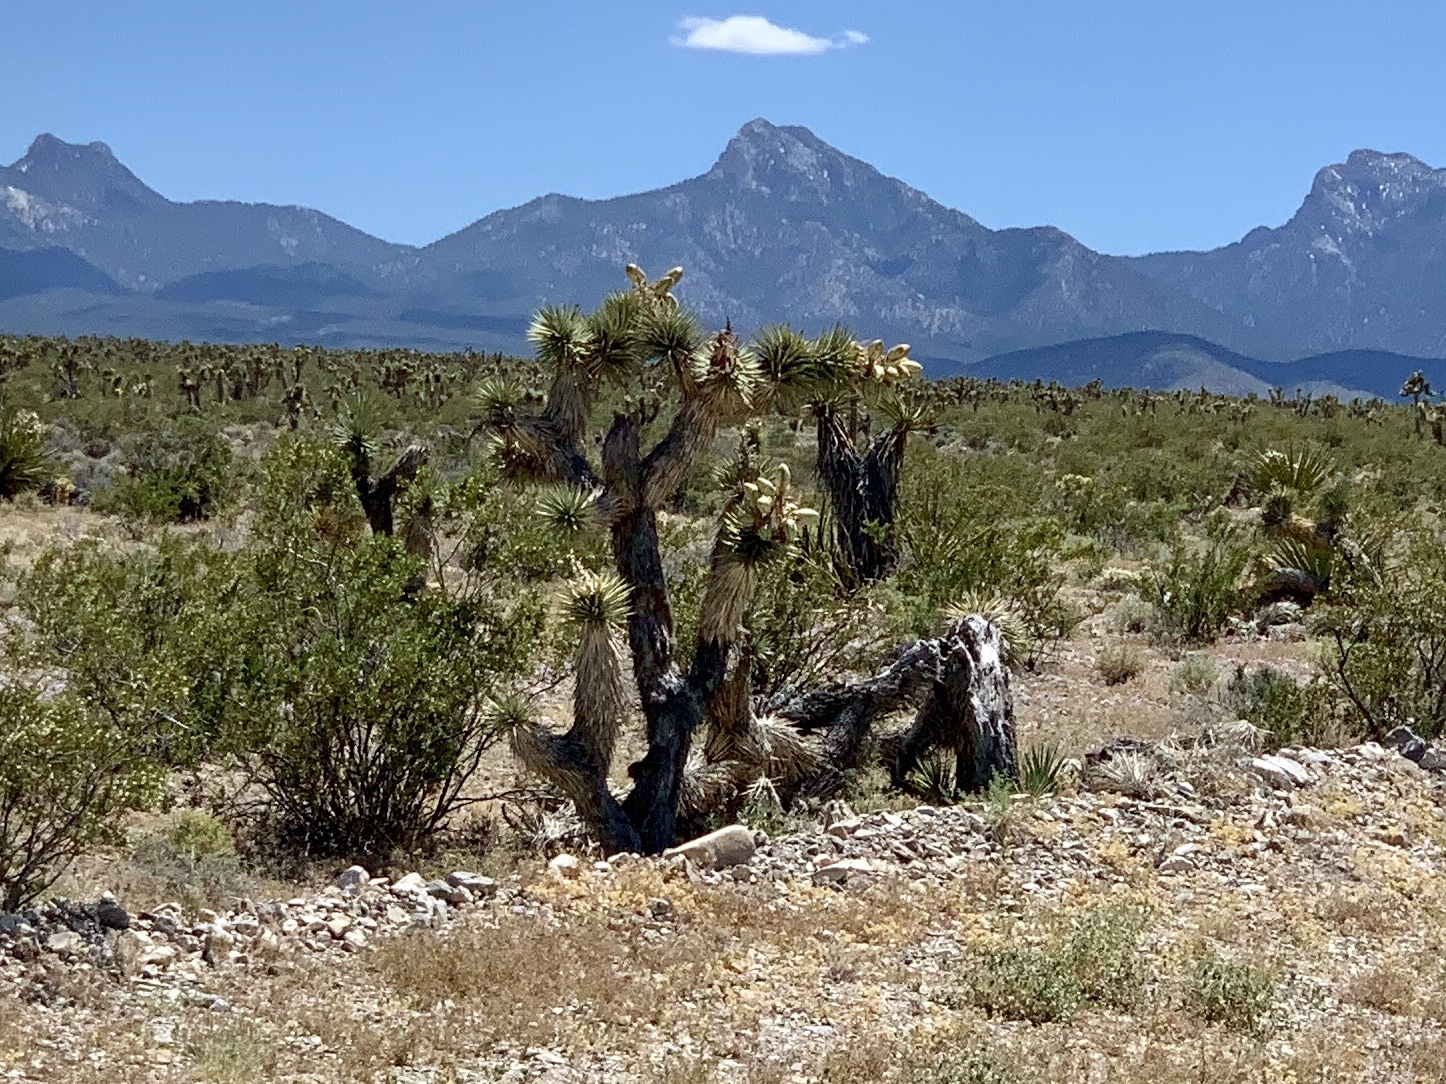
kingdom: Plantae
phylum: Tracheophyta
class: Liliopsida
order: Asparagales
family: Asparagaceae
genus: Yucca
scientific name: Yucca brevifolia
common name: Joshua tree
